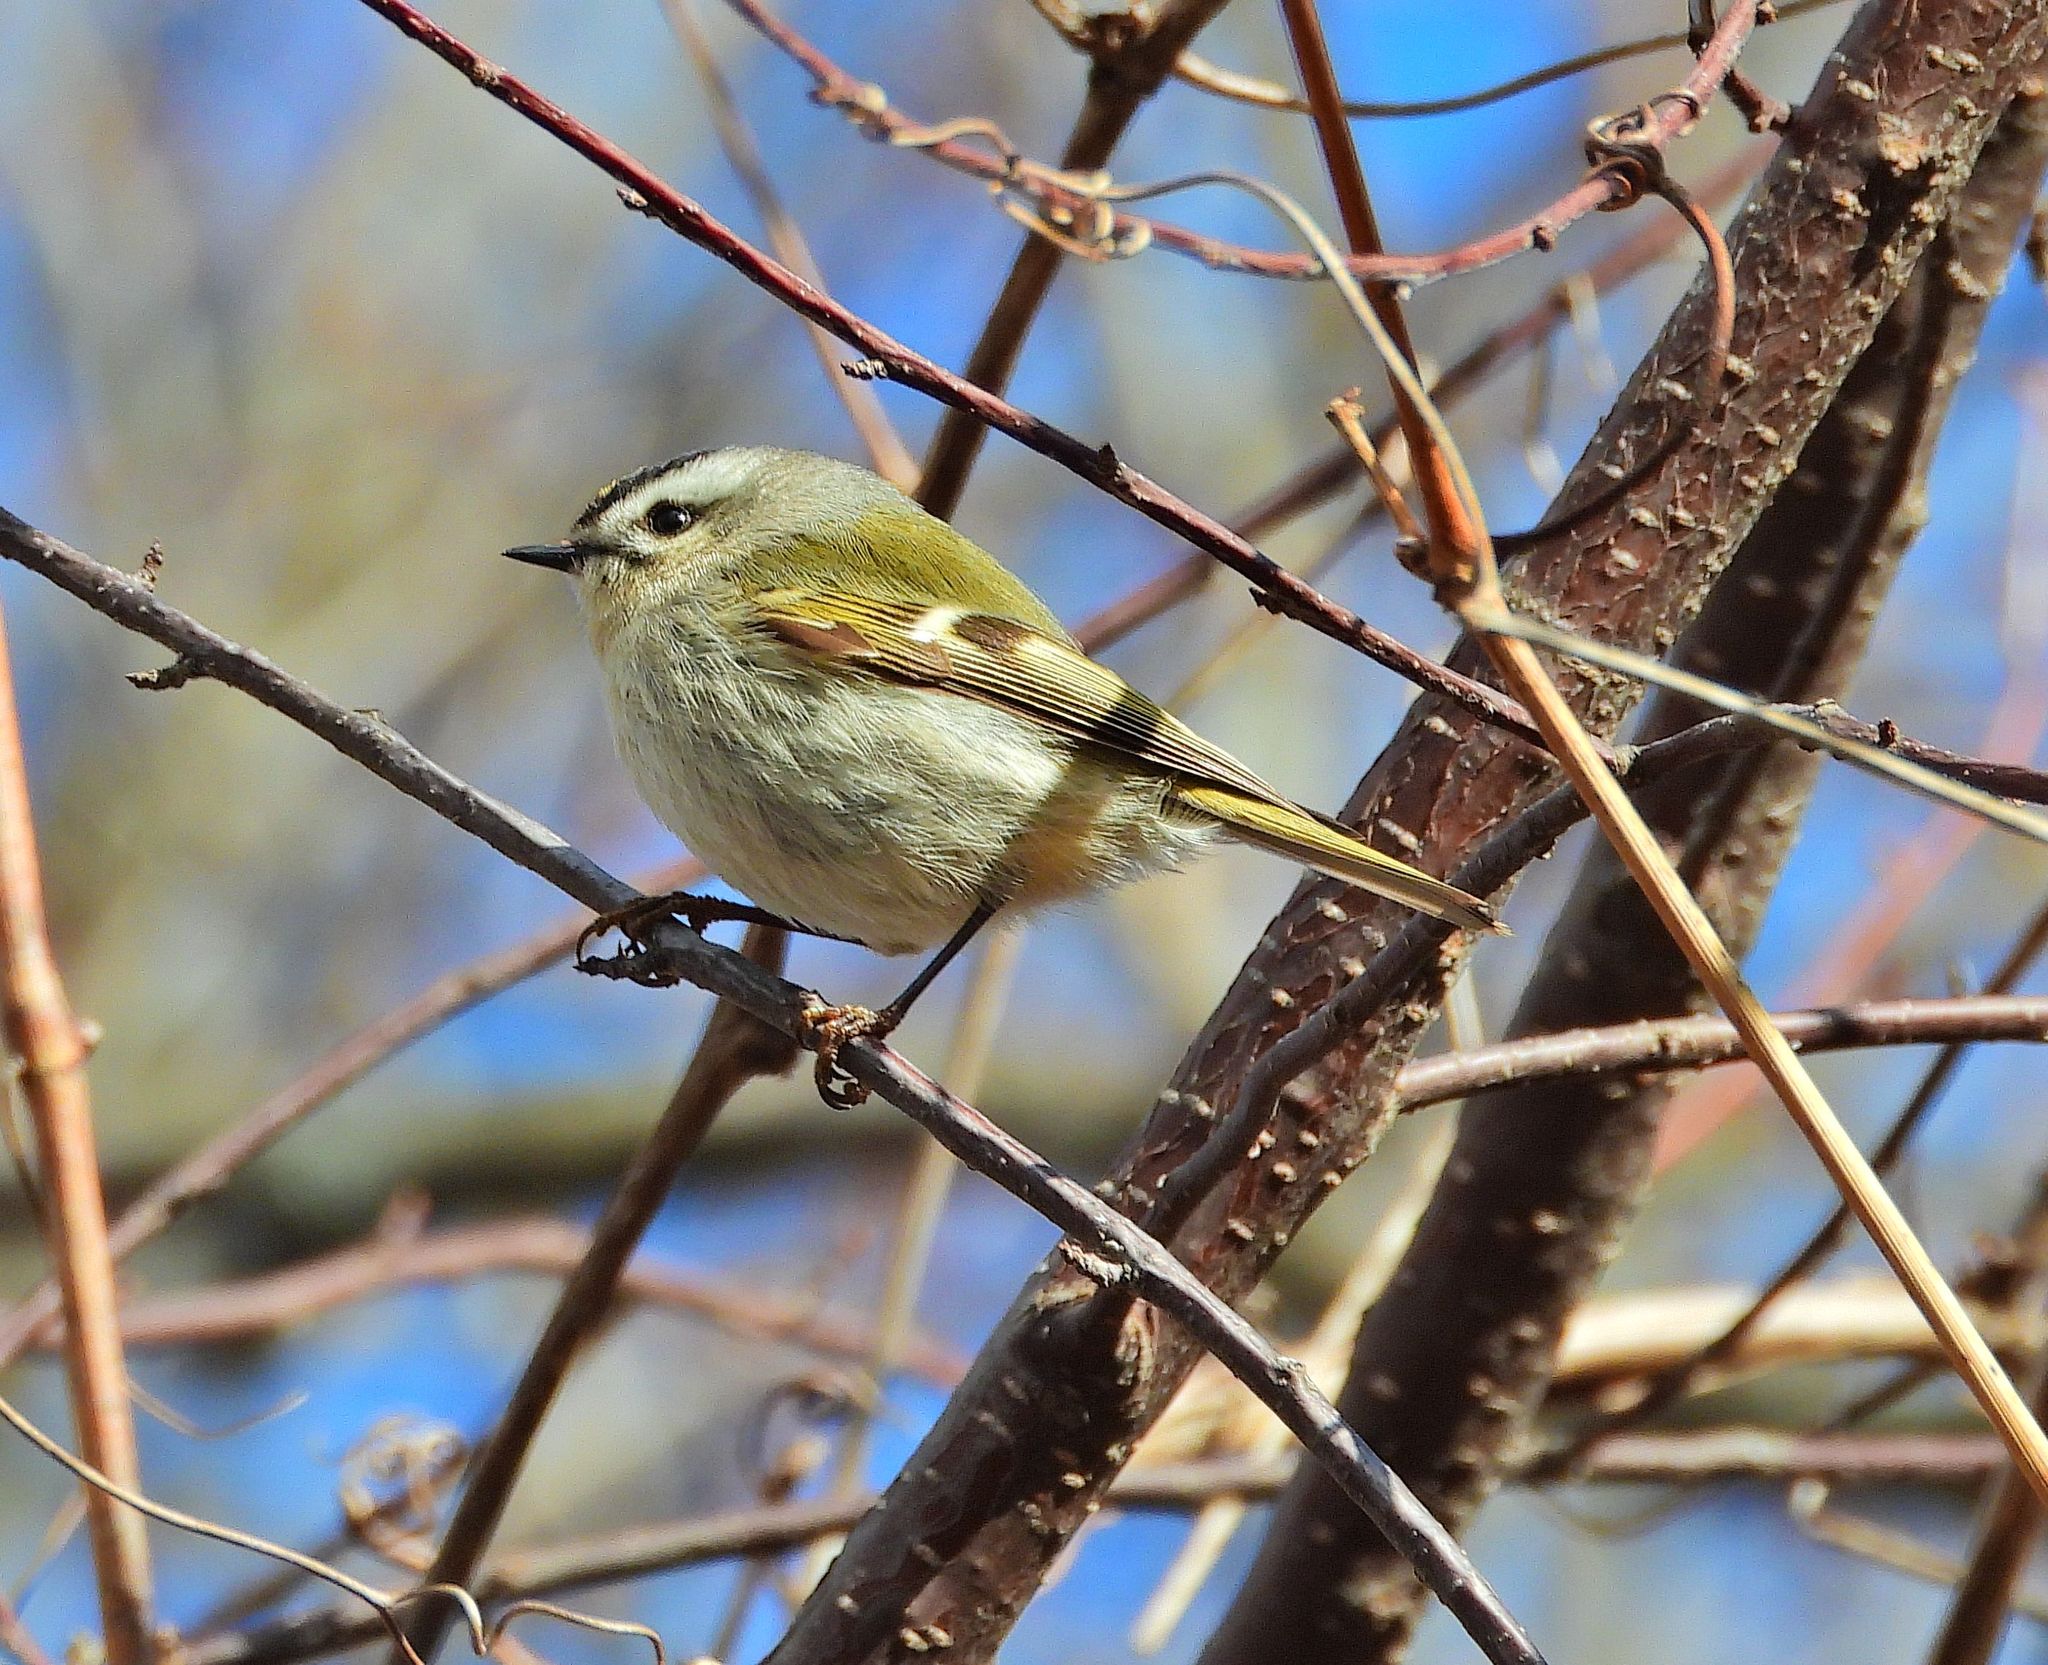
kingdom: Animalia
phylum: Chordata
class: Aves
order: Passeriformes
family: Regulidae
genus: Regulus
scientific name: Regulus satrapa
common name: Golden-crowned kinglet
